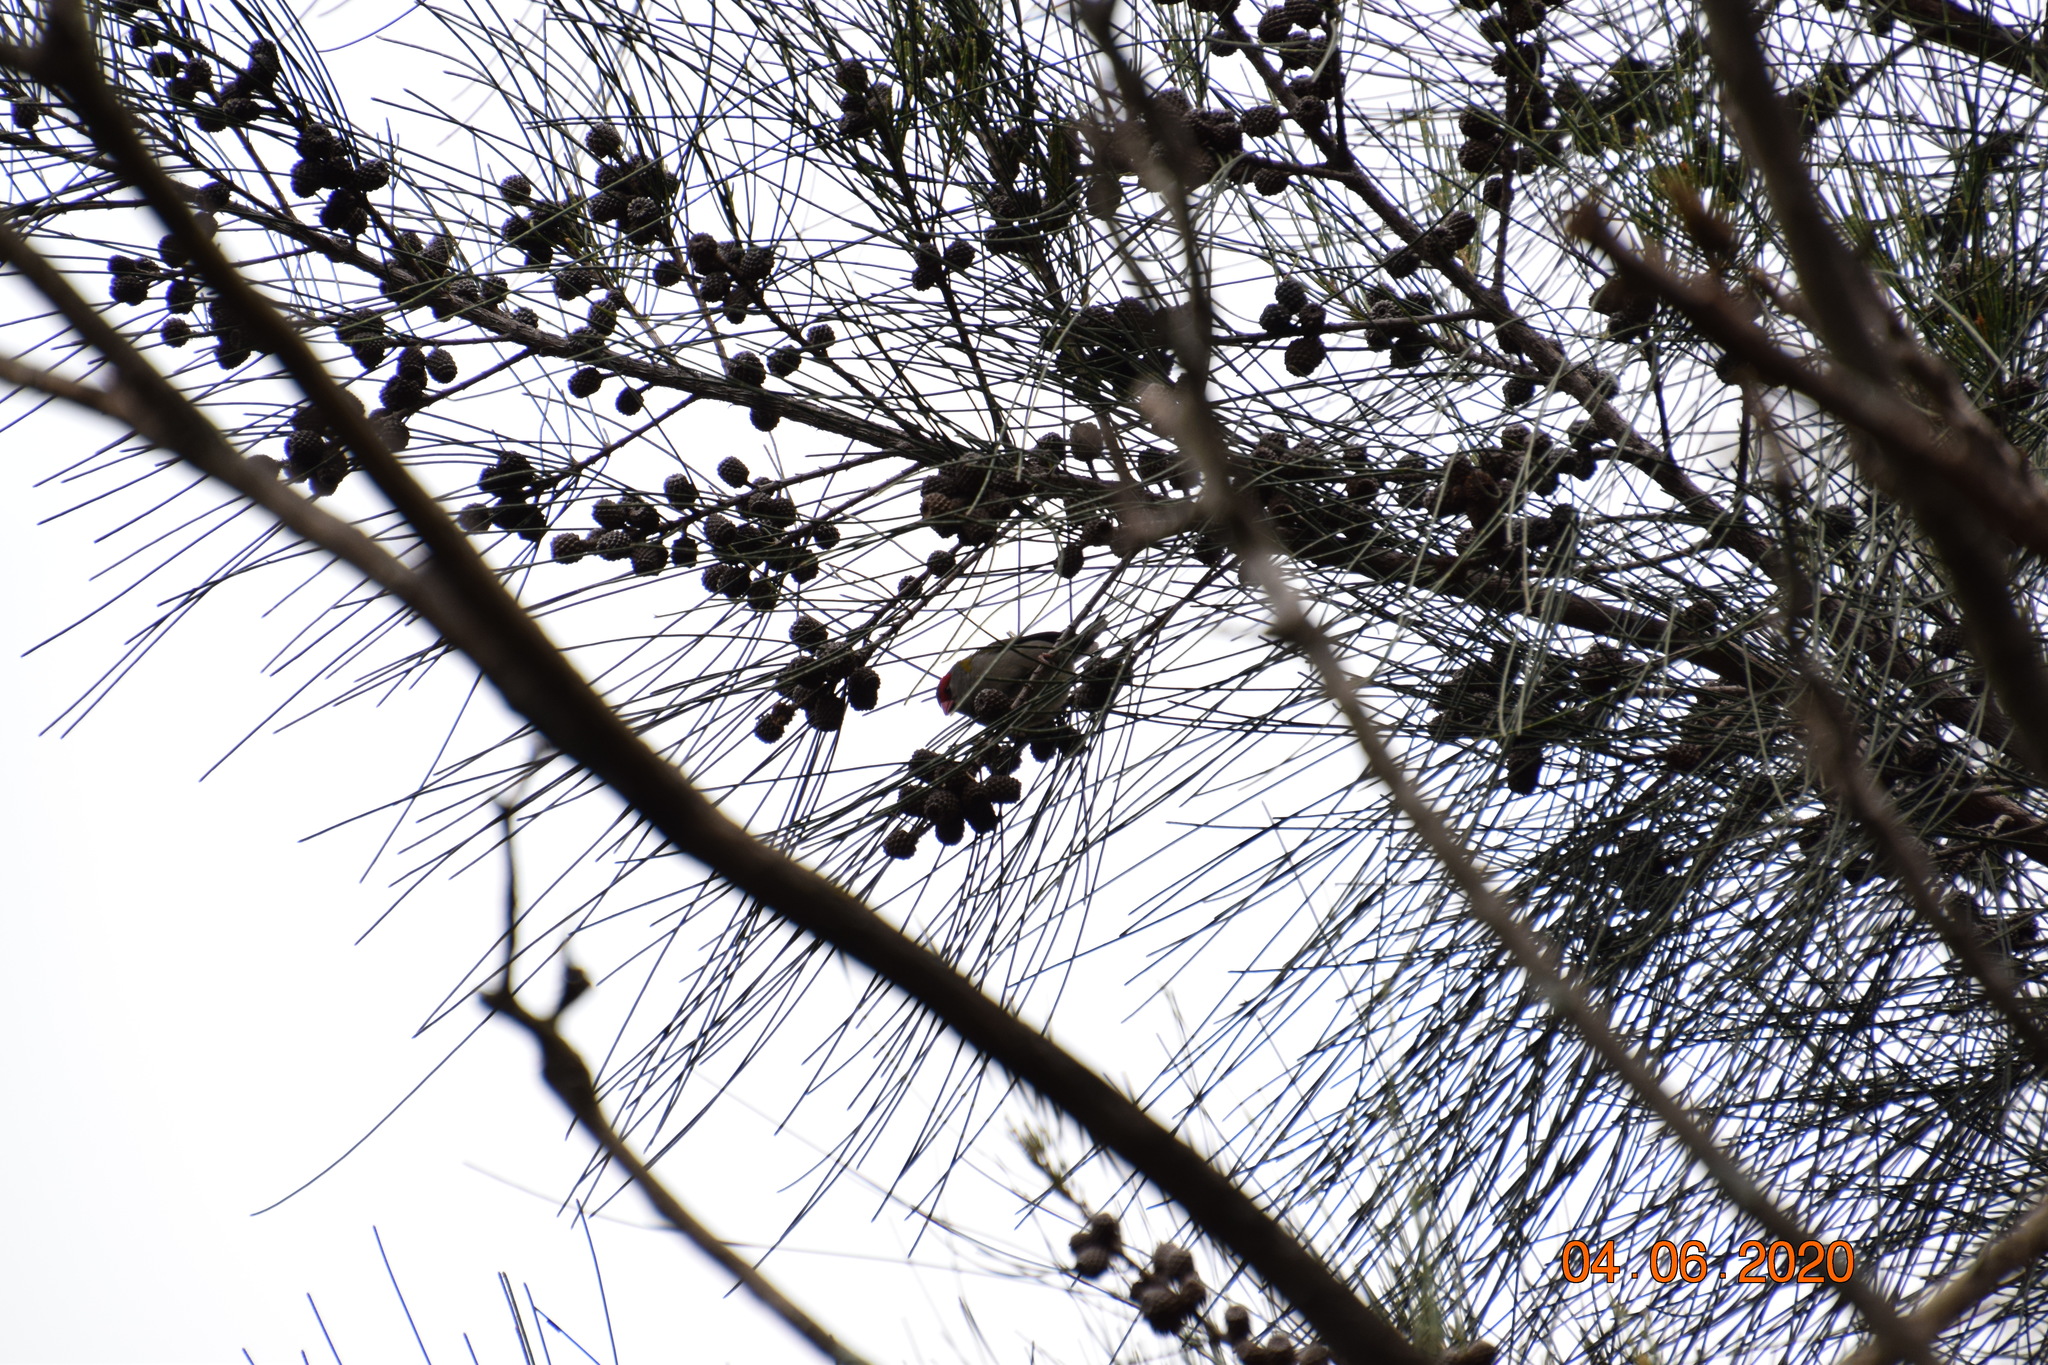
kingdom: Animalia
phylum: Chordata
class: Aves
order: Passeriformes
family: Estrildidae
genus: Neochmia
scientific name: Neochmia temporalis
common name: Red-browed finch
